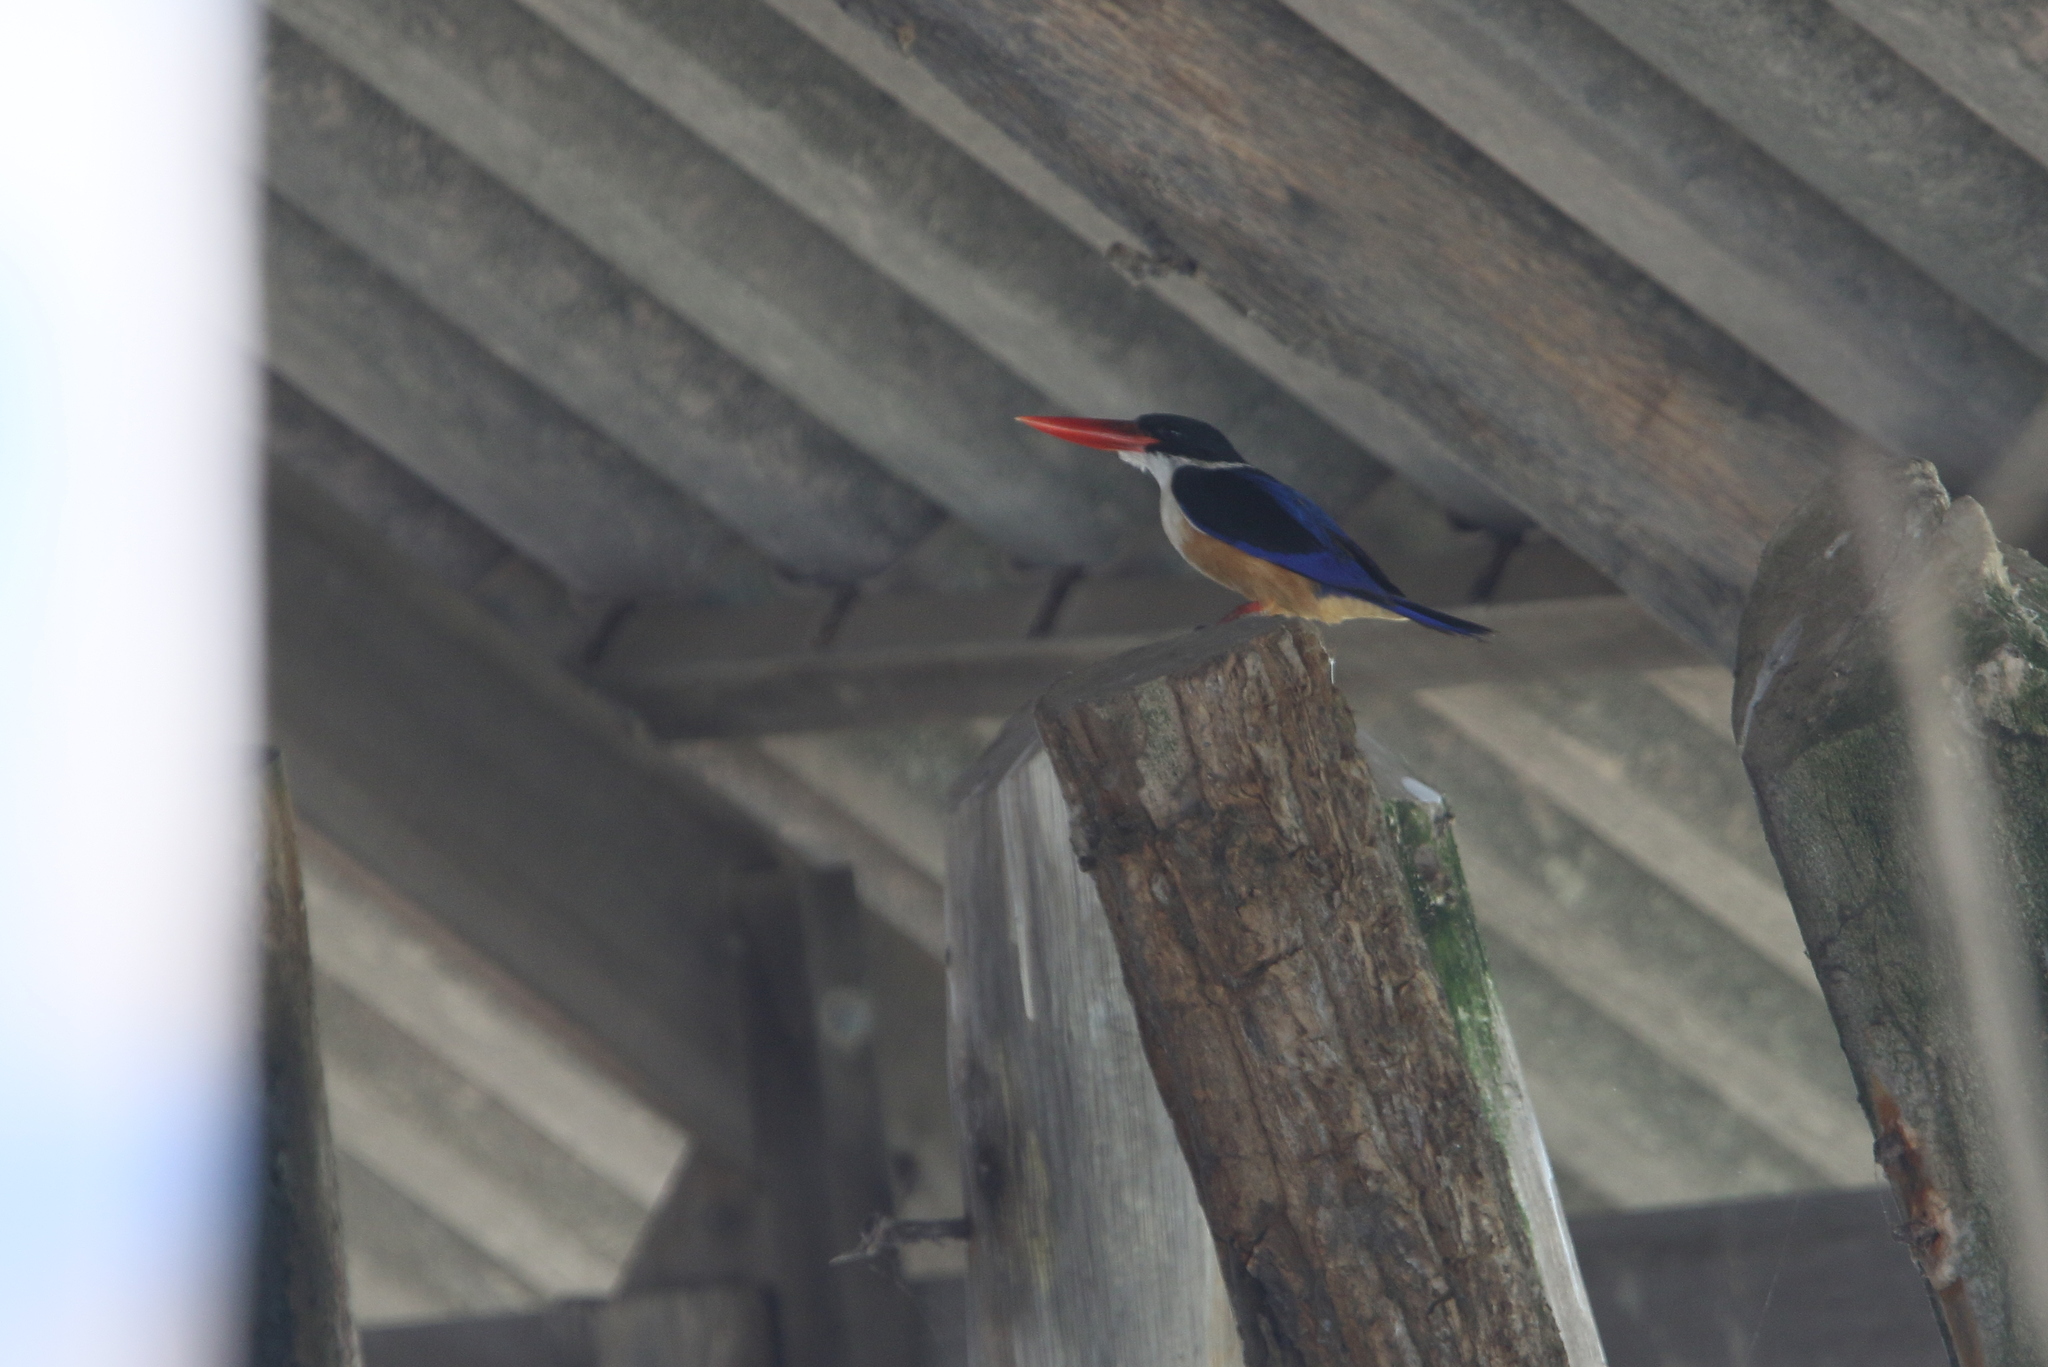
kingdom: Animalia
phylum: Chordata
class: Aves
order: Coraciiformes
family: Alcedinidae
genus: Halcyon
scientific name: Halcyon pileata
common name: Black-capped kingfisher
